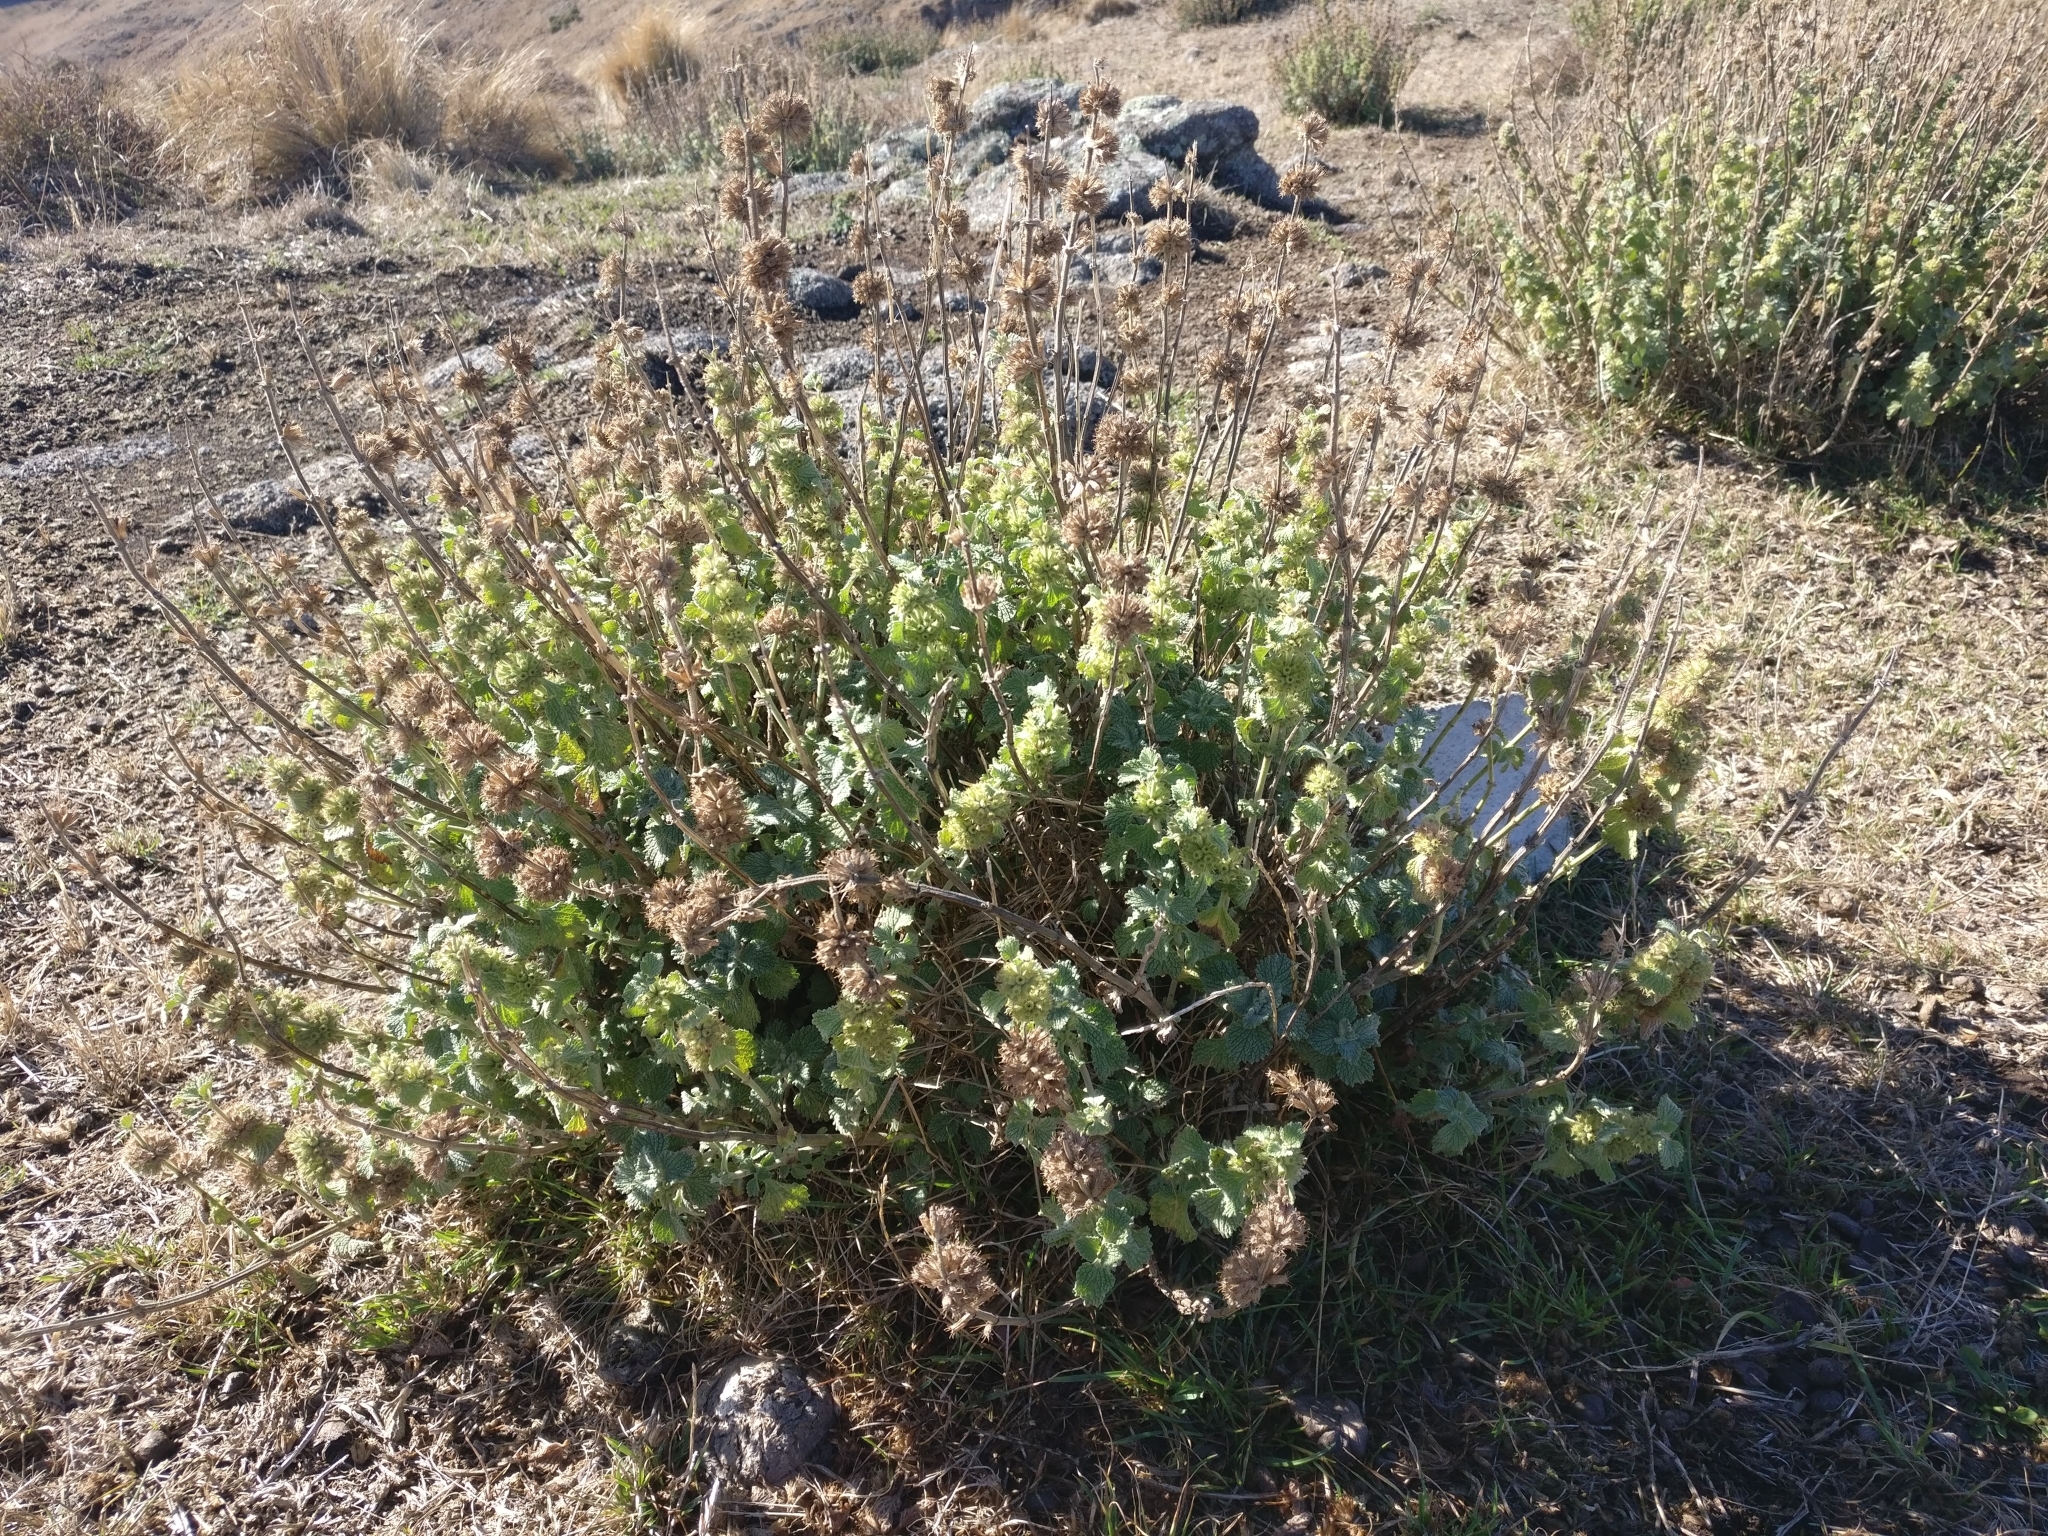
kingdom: Plantae
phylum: Tracheophyta
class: Magnoliopsida
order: Lamiales
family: Lamiaceae
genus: Marrubium
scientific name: Marrubium vulgare
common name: Horehound
